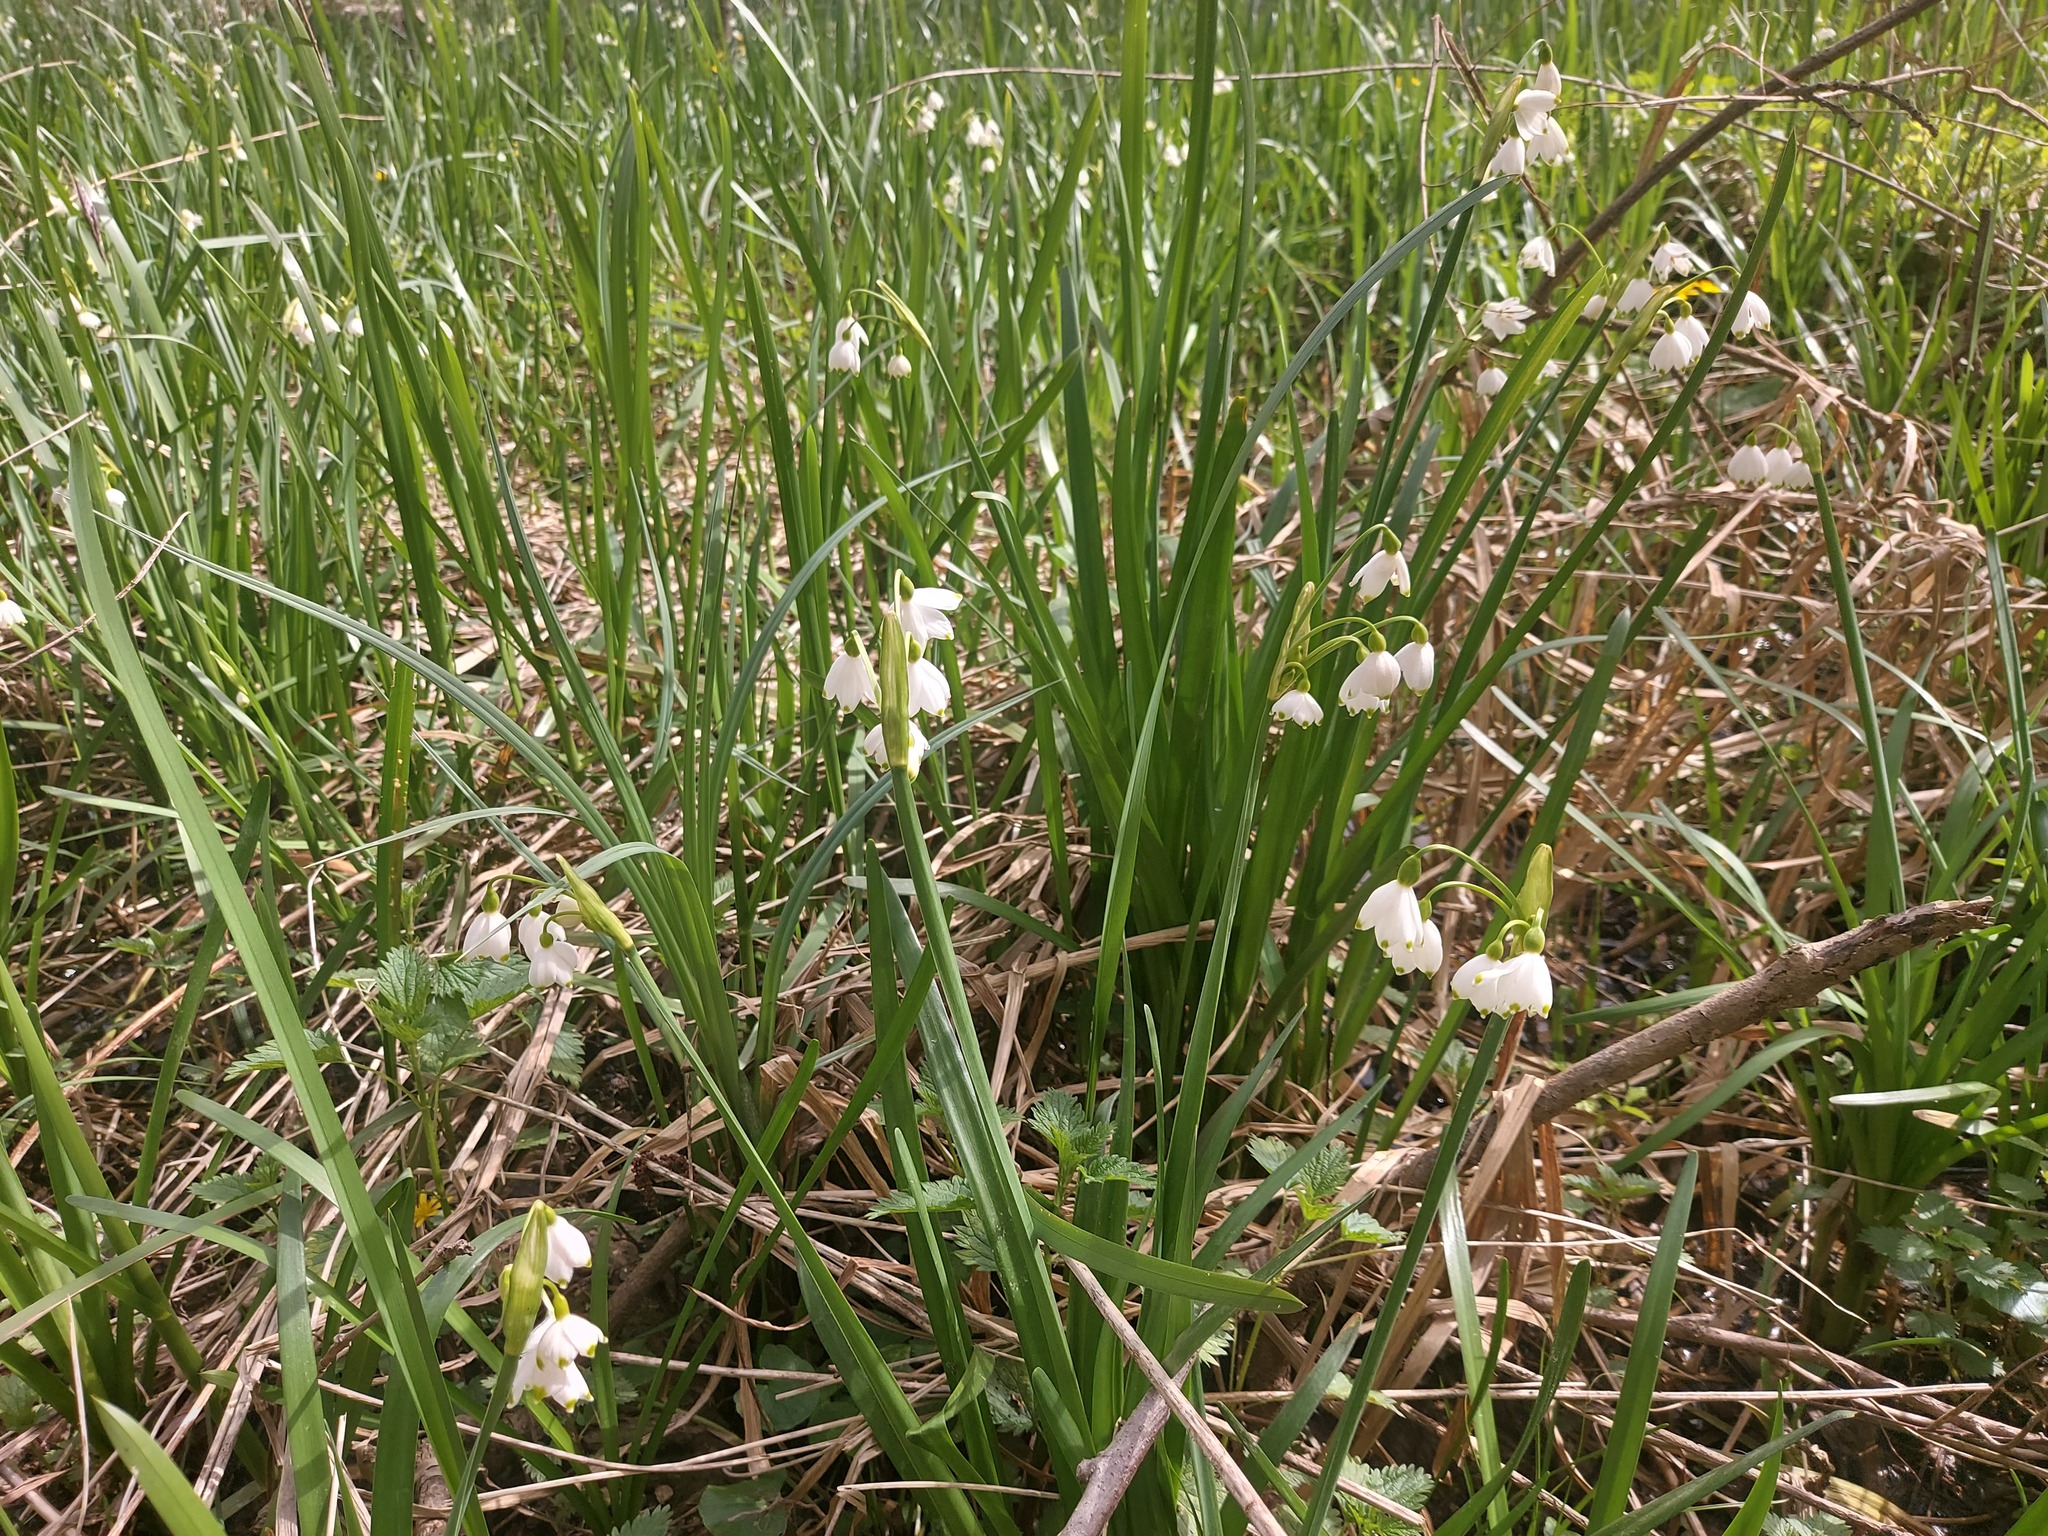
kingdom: Plantae
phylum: Tracheophyta
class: Liliopsida
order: Asparagales
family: Amaryllidaceae
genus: Leucojum
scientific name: Leucojum aestivum
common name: Summer snowflake
